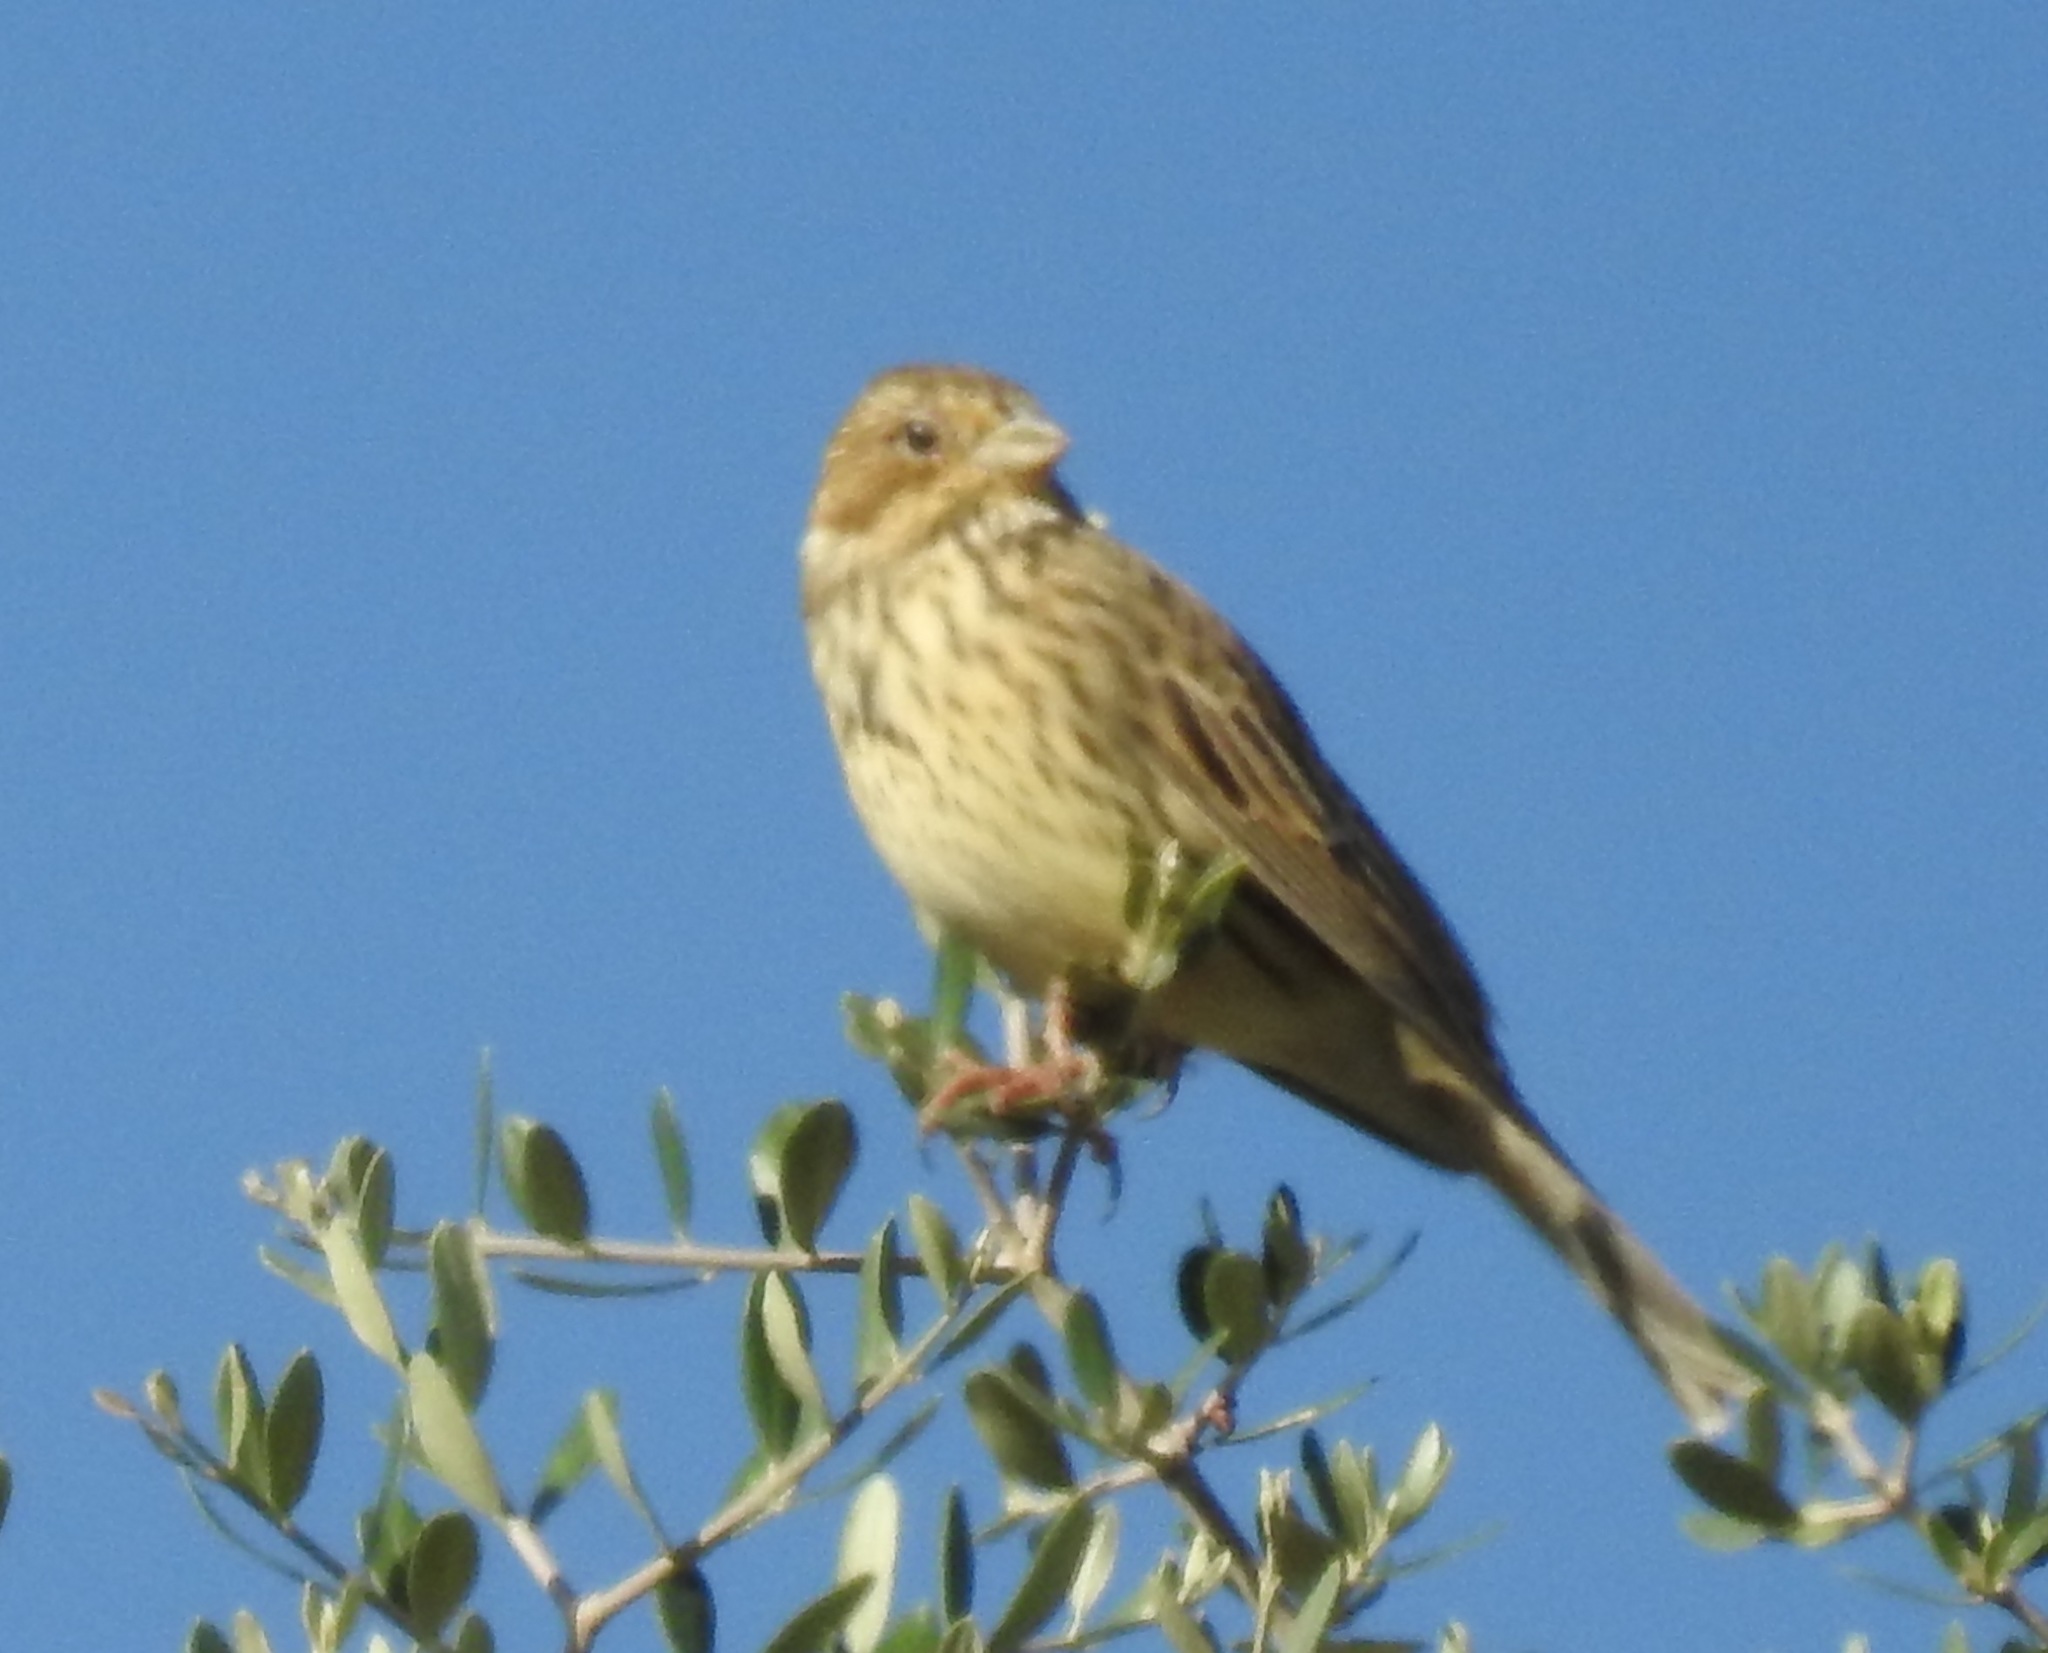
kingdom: Animalia
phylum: Chordata
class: Aves
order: Passeriformes
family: Emberizidae
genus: Emberiza
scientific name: Emberiza calandra
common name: Corn bunting
